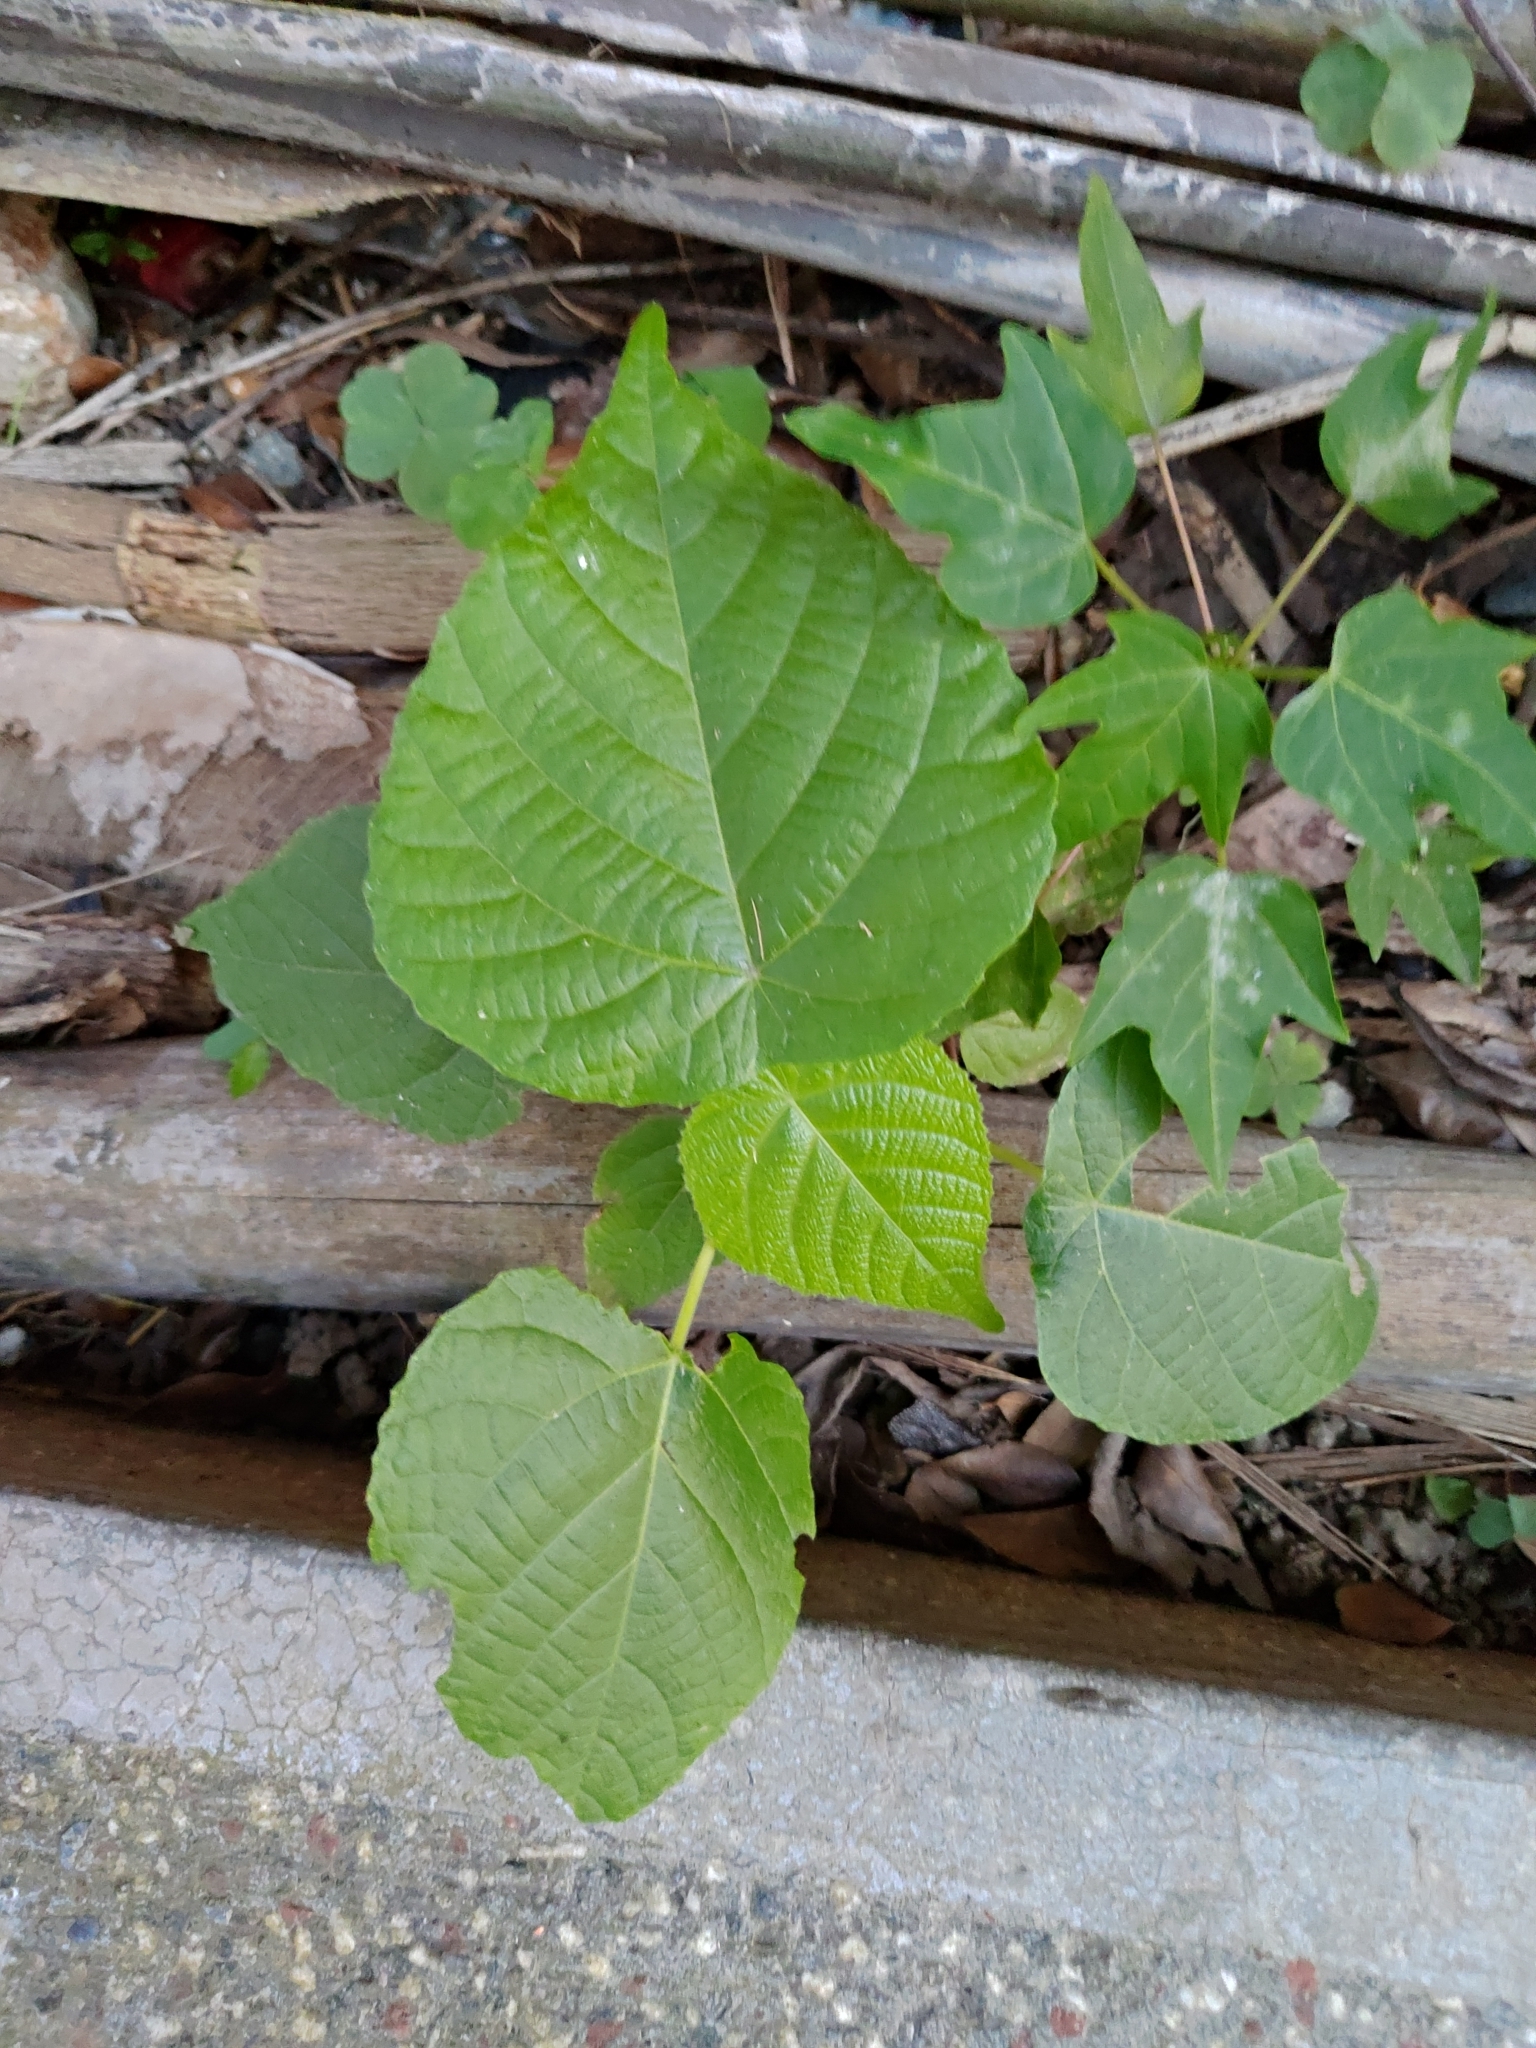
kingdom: Plantae
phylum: Tracheophyta
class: Magnoliopsida
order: Malpighiales
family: Euphorbiaceae
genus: Macaranga
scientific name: Macaranga tanarius
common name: Parasol leaf tree
